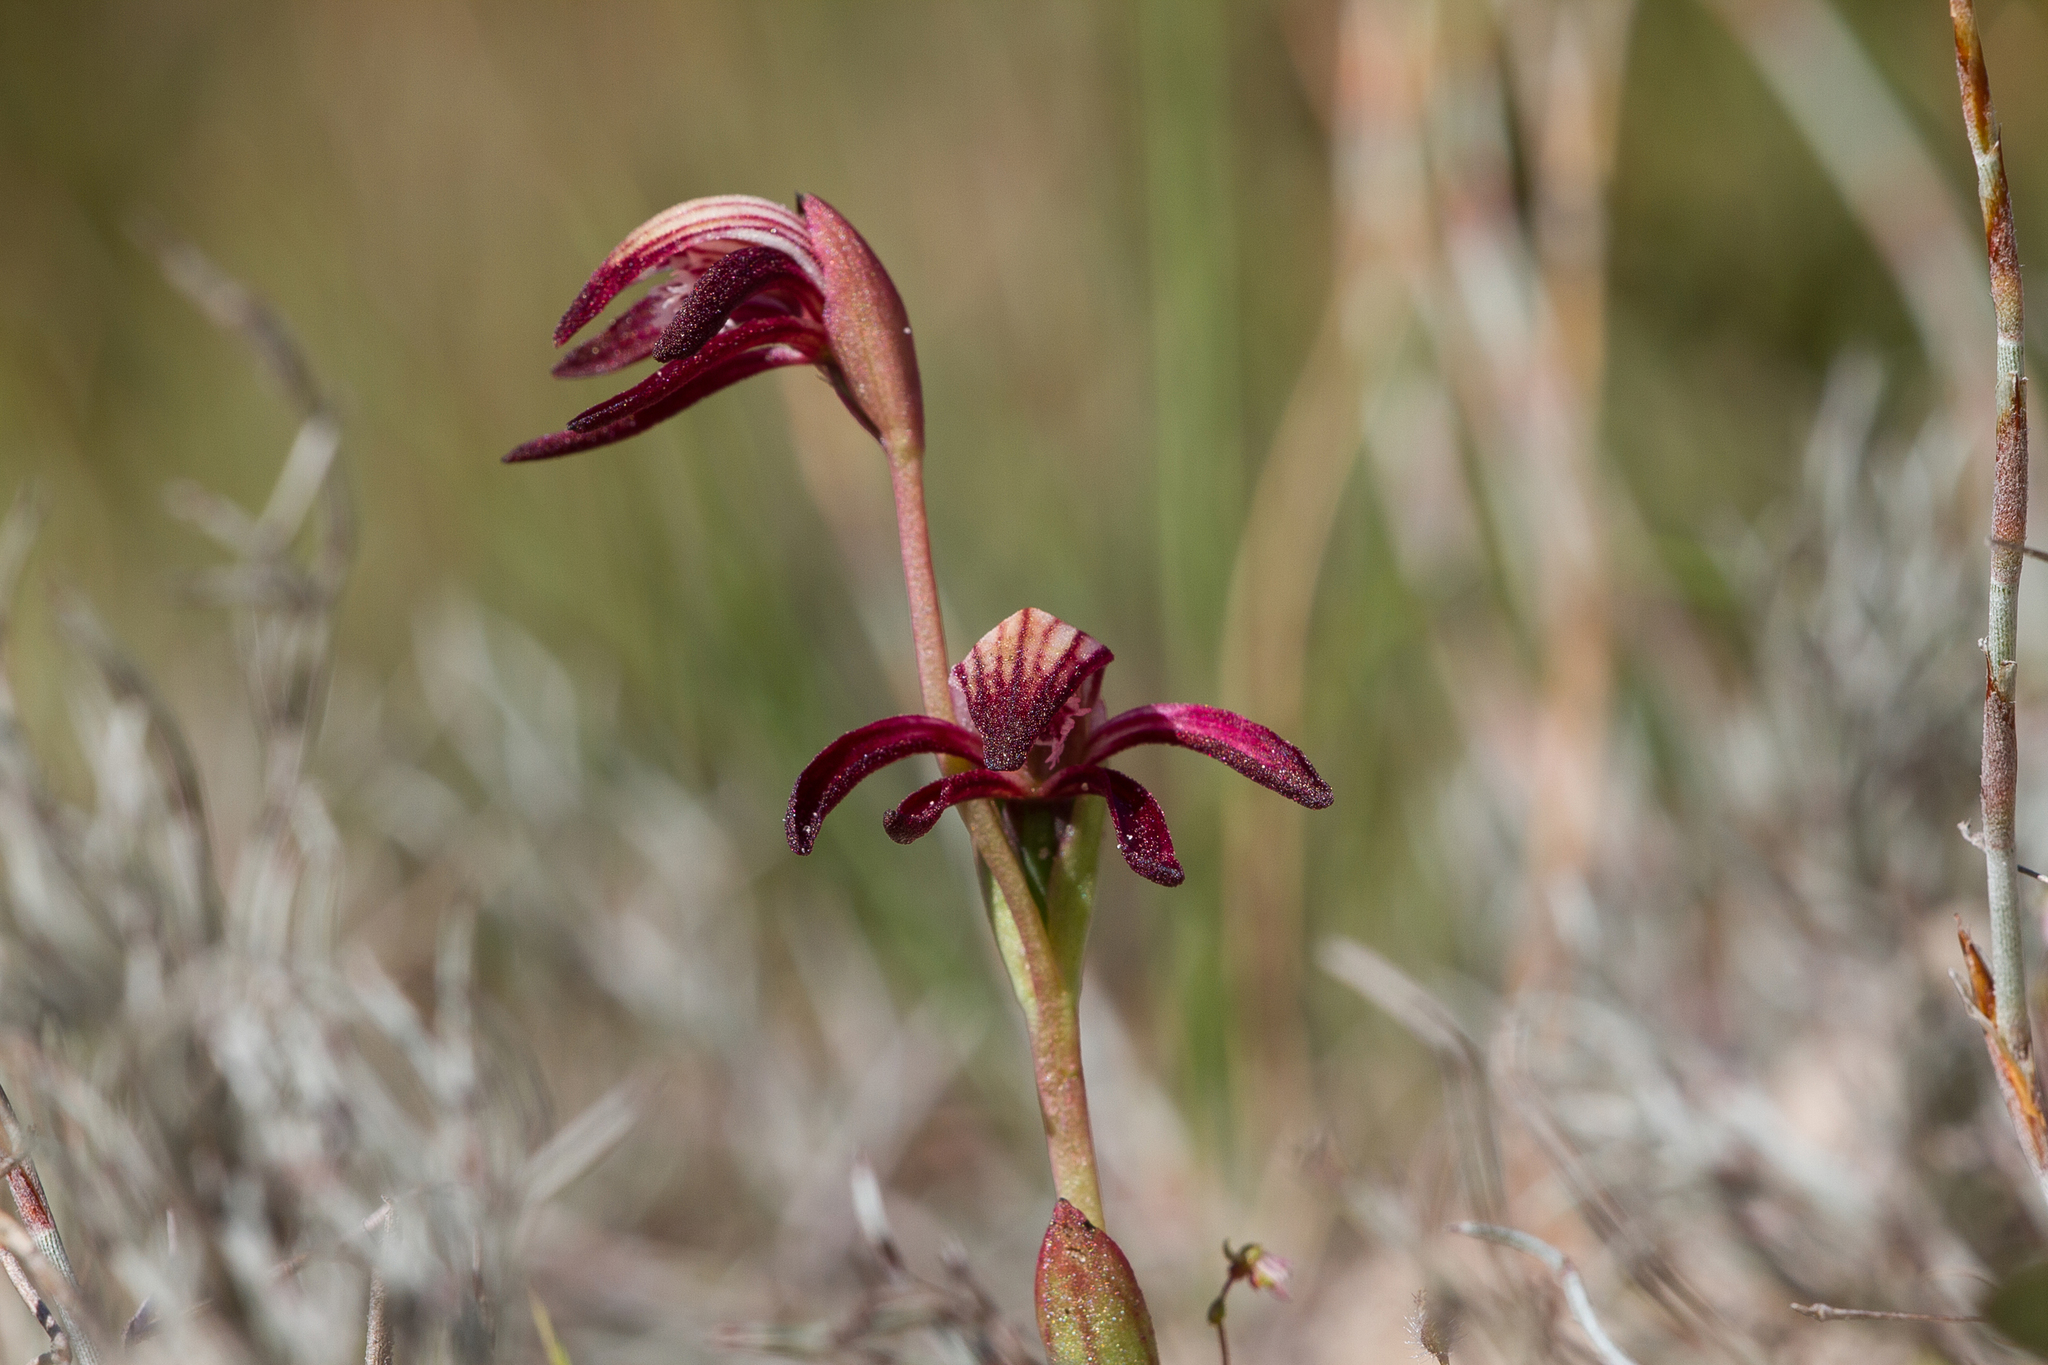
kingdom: Plantae
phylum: Tracheophyta
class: Liliopsida
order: Asparagales
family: Orchidaceae
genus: Pyrorchis
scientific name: Pyrorchis nigricans
